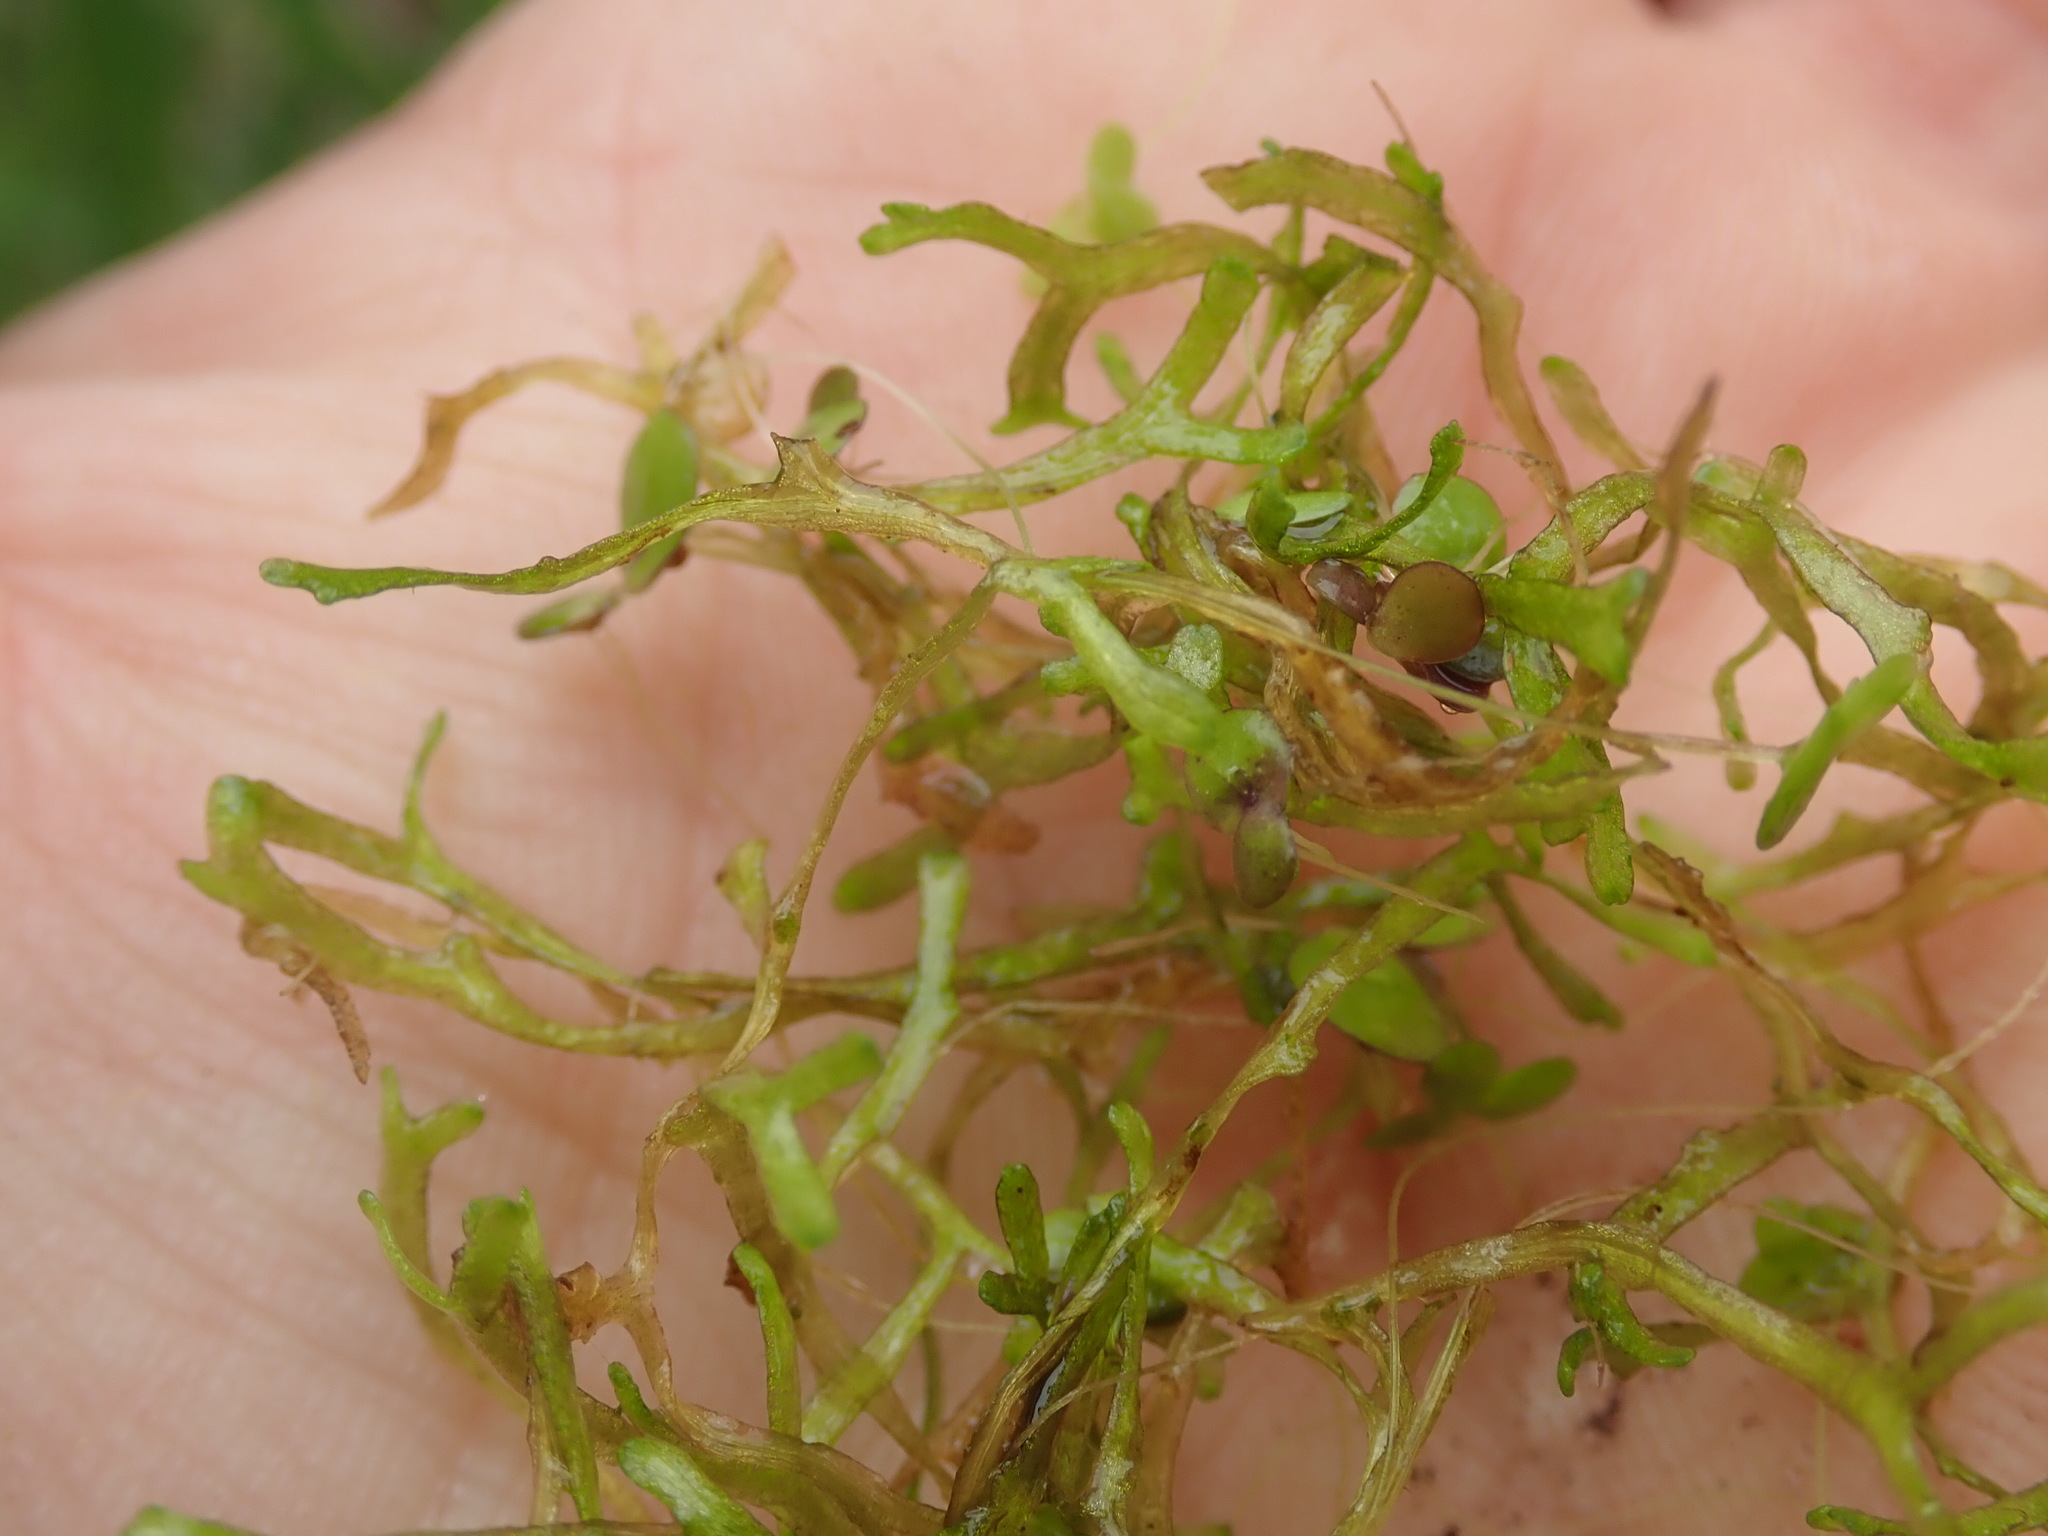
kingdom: Plantae
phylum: Marchantiophyta
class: Marchantiopsida
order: Marchantiales
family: Ricciaceae
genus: Riccia
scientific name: Riccia fluitans
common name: Floating crystalwort
